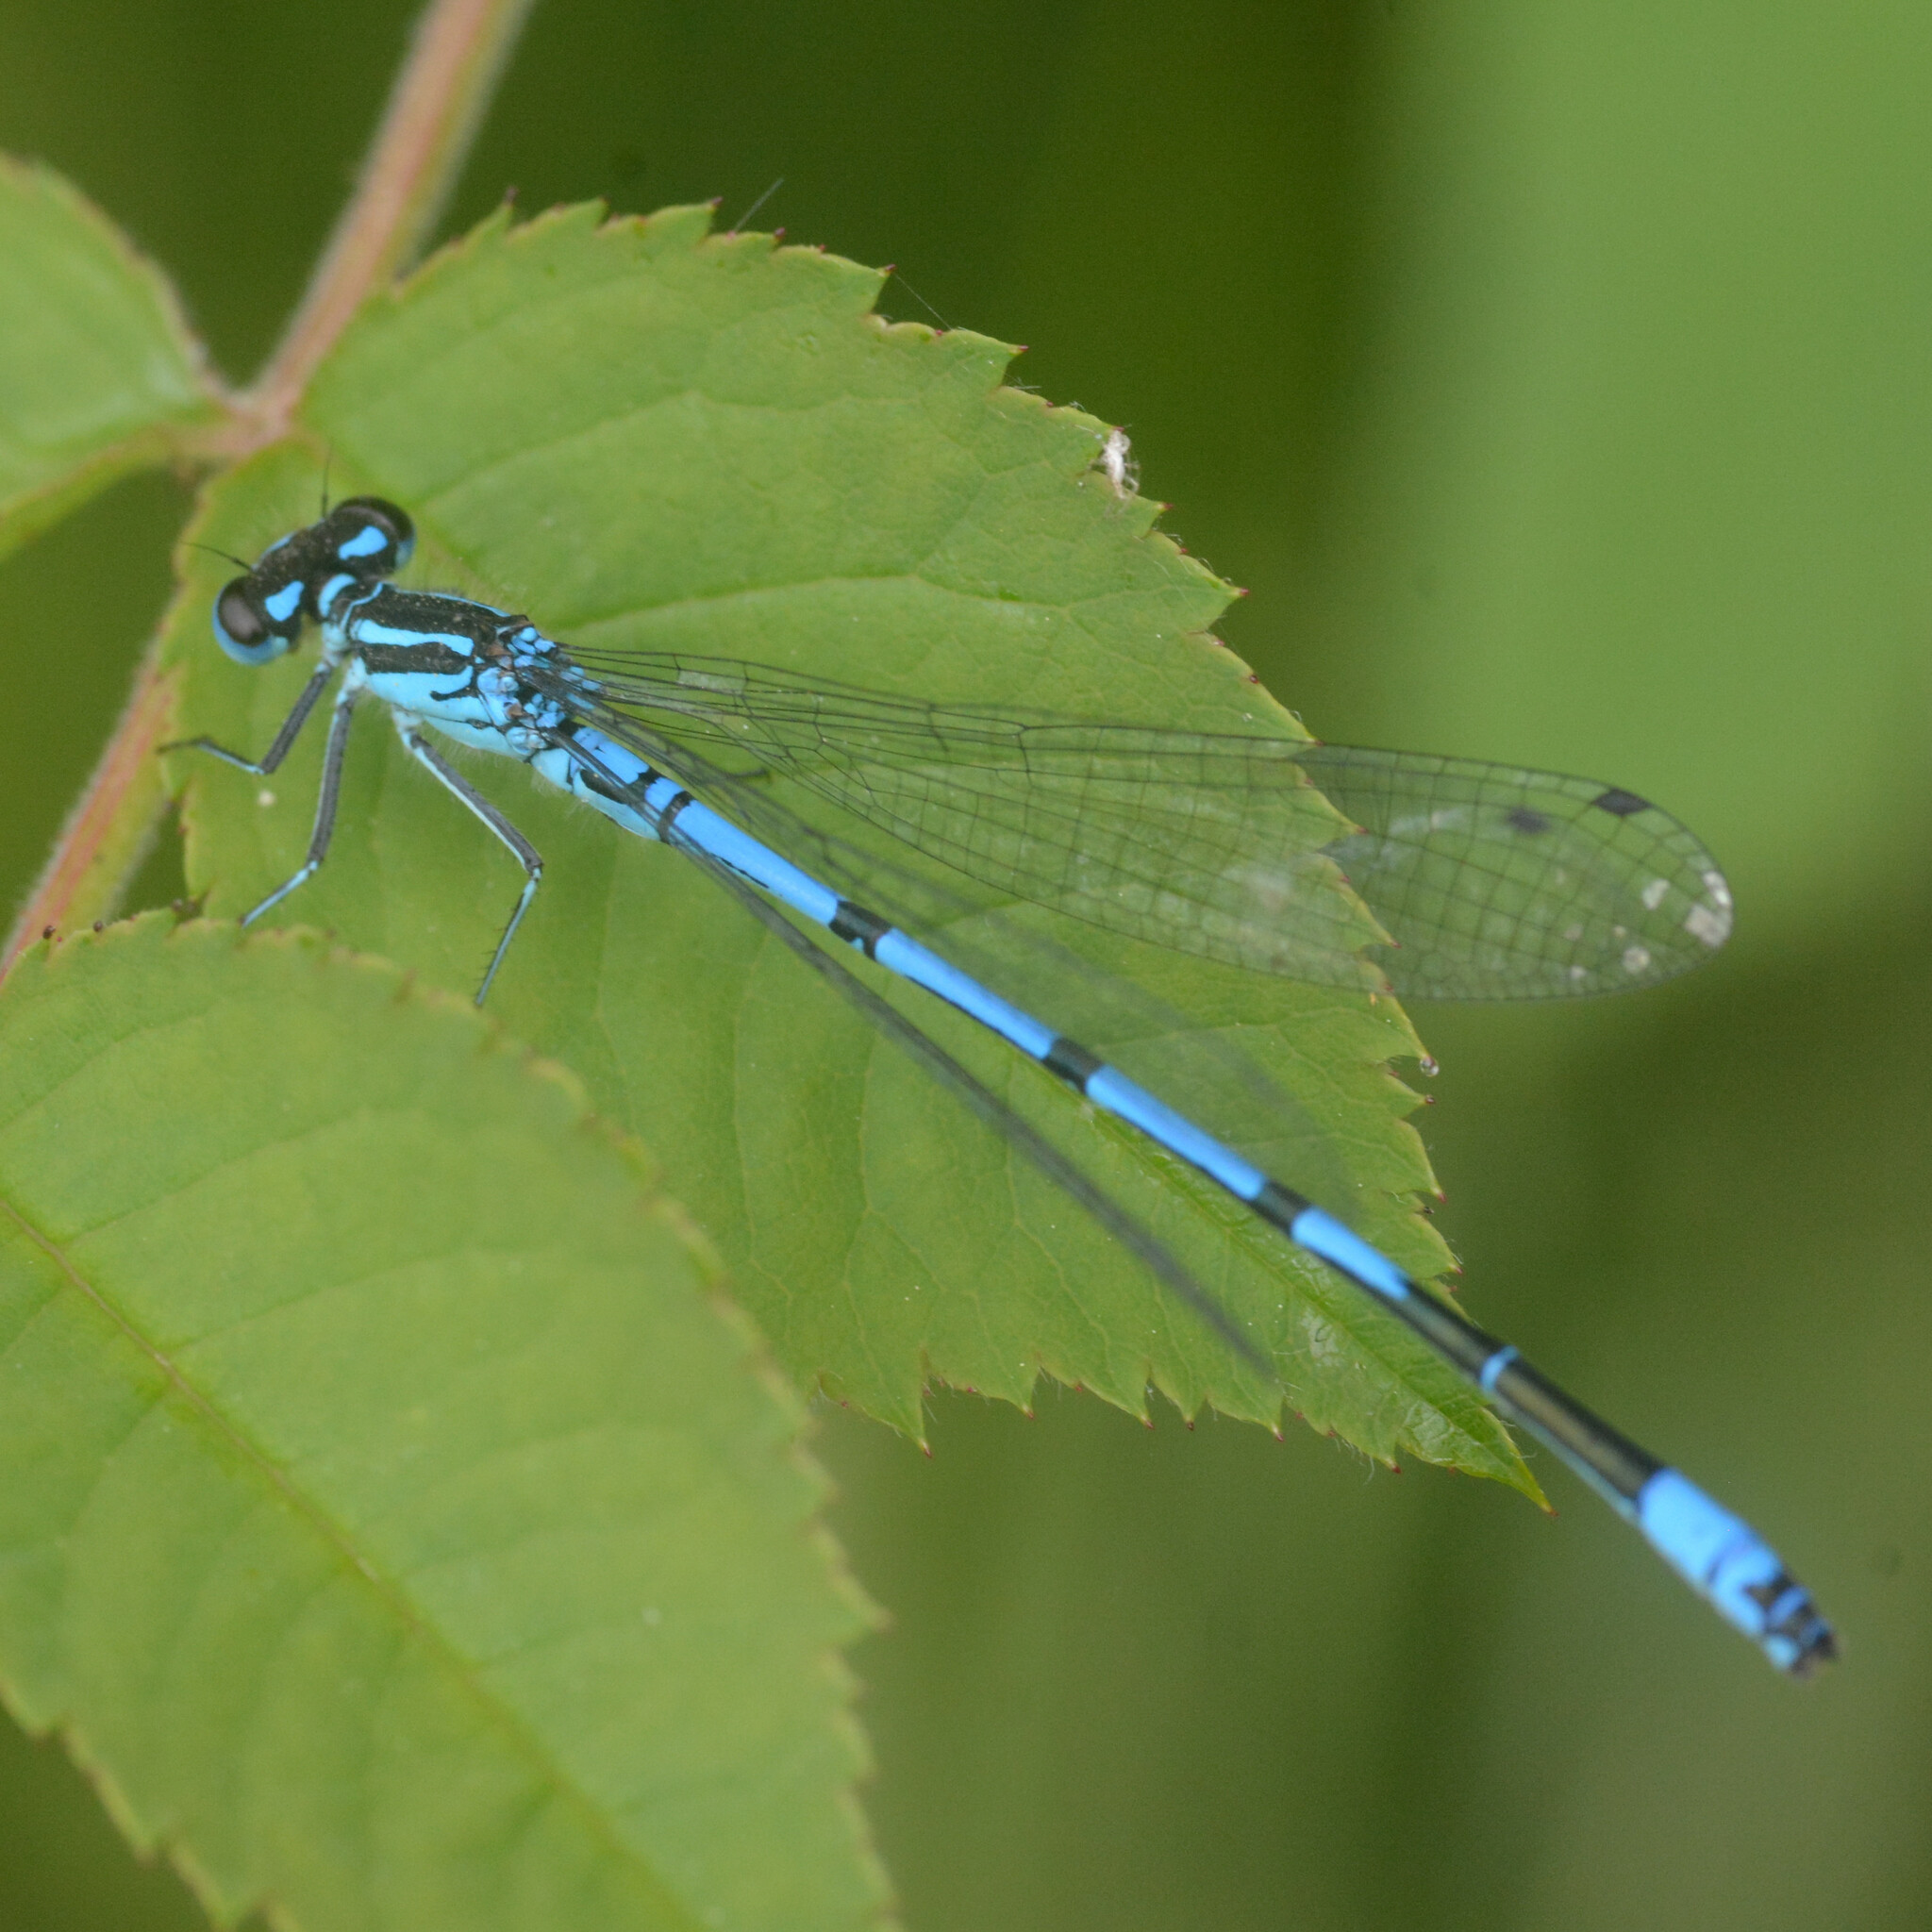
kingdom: Animalia
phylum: Arthropoda
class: Insecta
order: Odonata
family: Coenagrionidae
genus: Coenagrion
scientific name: Coenagrion puella
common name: Azure damselfly
